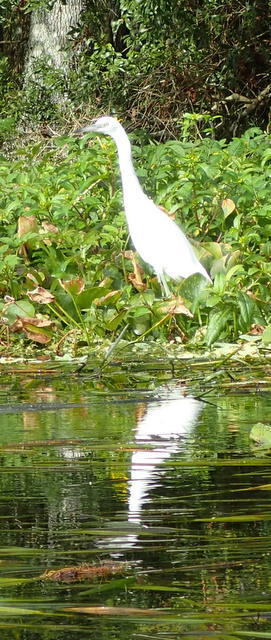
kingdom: Animalia
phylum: Chordata
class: Aves
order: Pelecaniformes
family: Ardeidae
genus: Egretta
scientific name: Egretta caerulea
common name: Little blue heron
